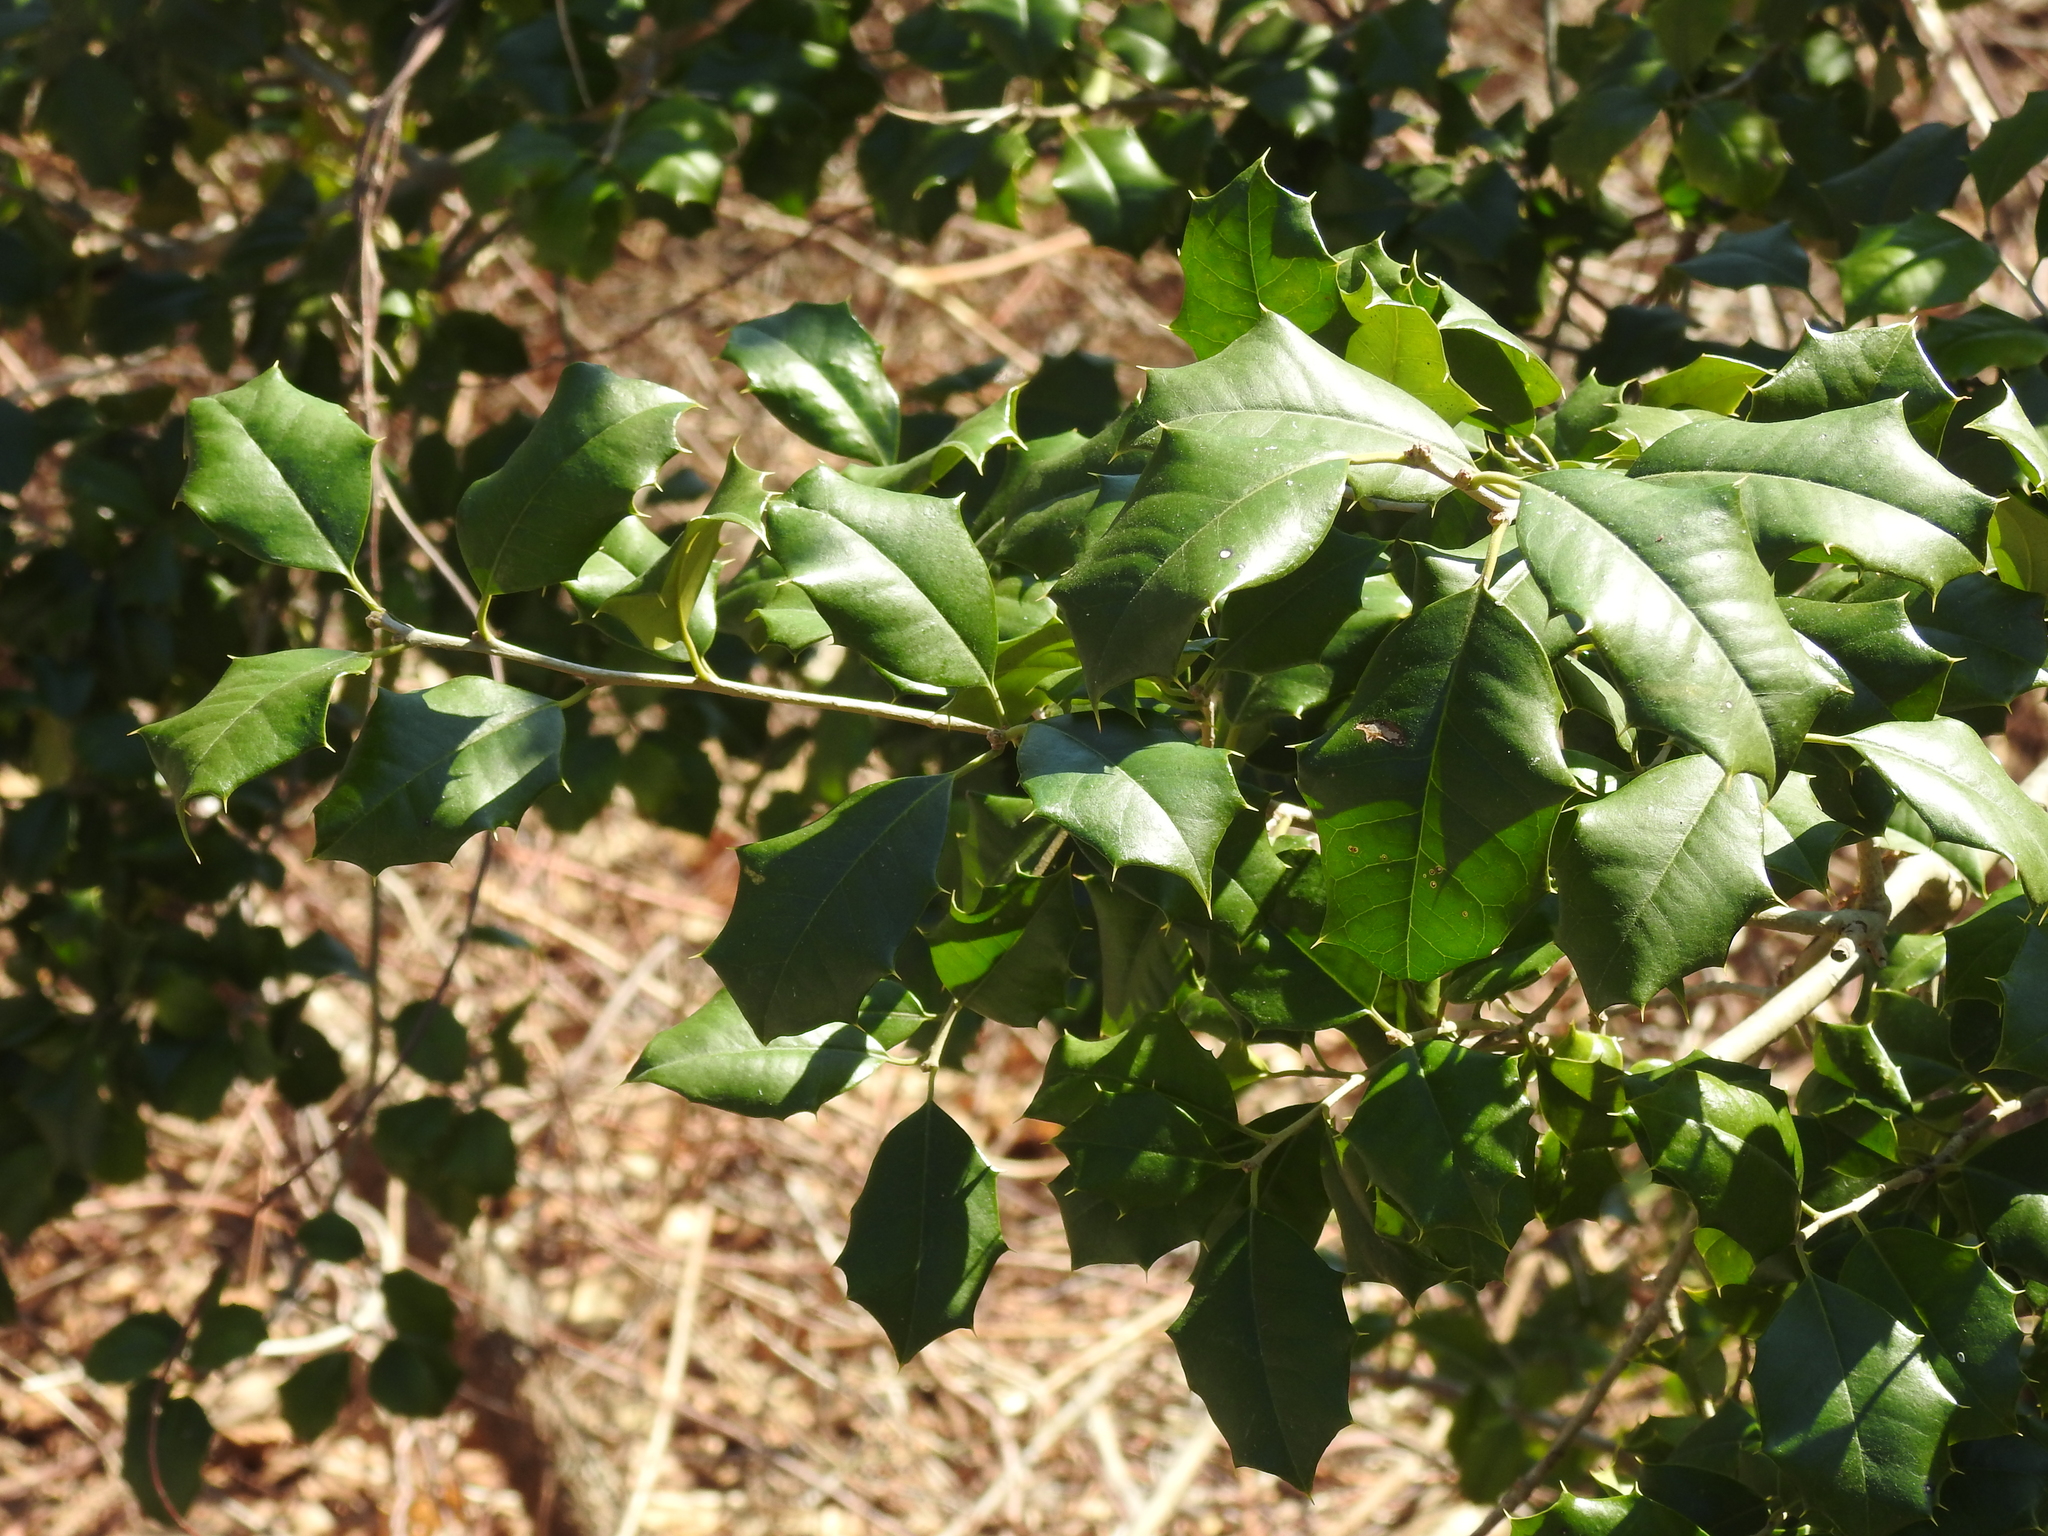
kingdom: Plantae
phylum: Tracheophyta
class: Magnoliopsida
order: Aquifoliales
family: Aquifoliaceae
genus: Ilex
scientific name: Ilex opaca
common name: American holly
